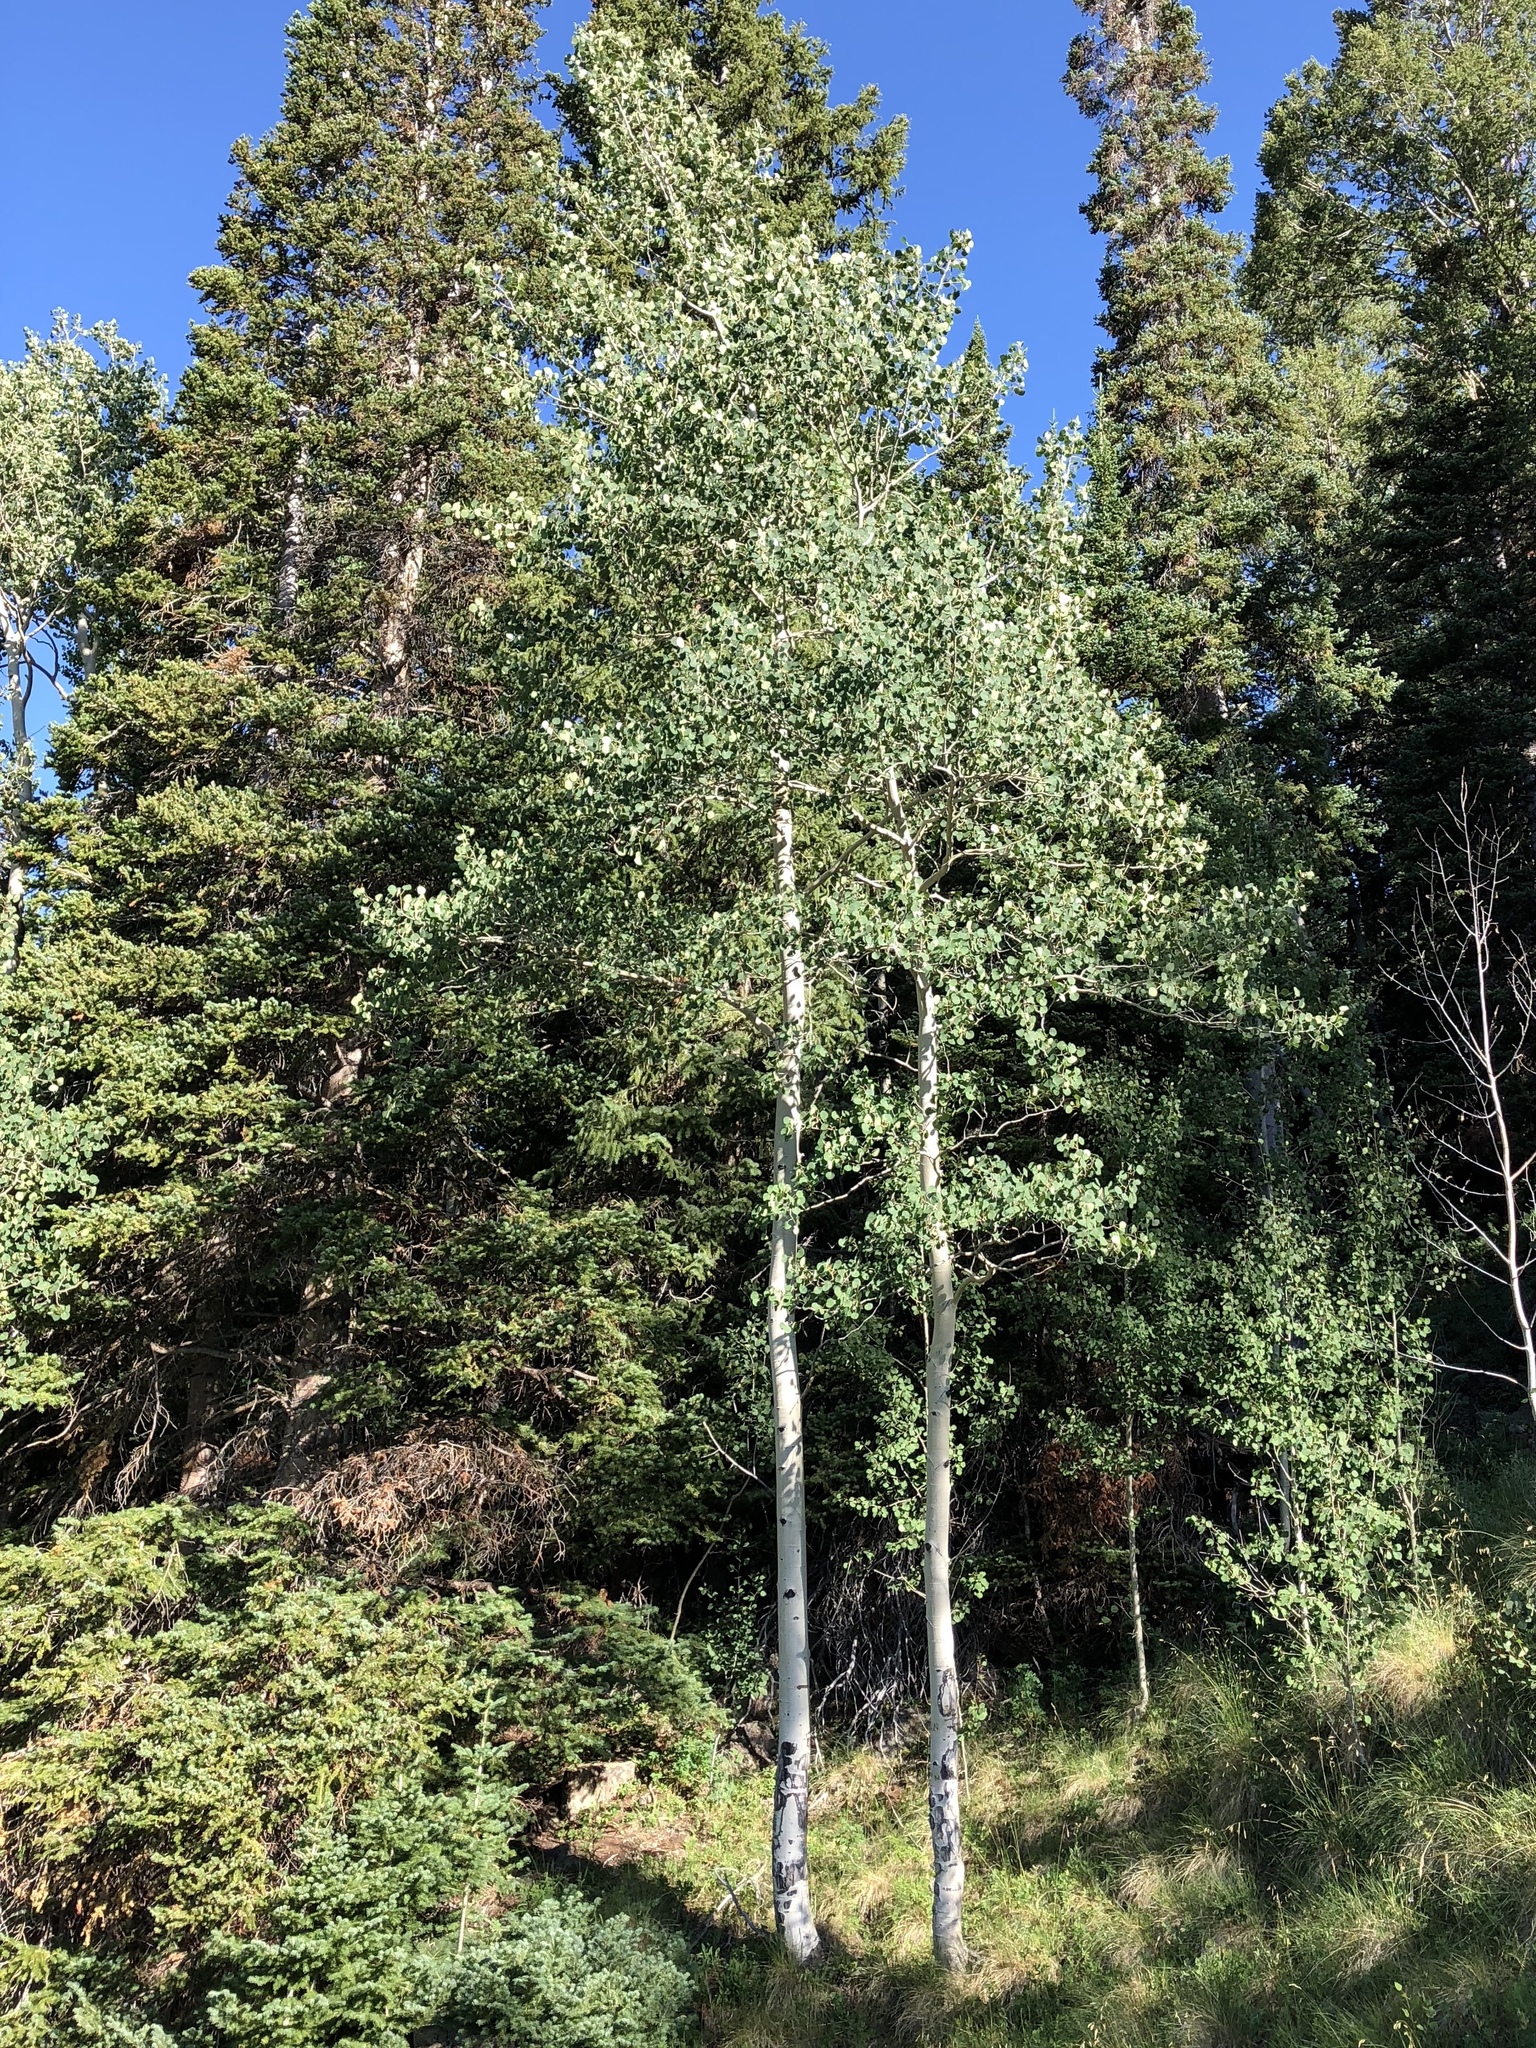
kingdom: Plantae
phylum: Tracheophyta
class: Magnoliopsida
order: Malpighiales
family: Salicaceae
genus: Populus
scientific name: Populus tremuloides
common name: Quaking aspen
